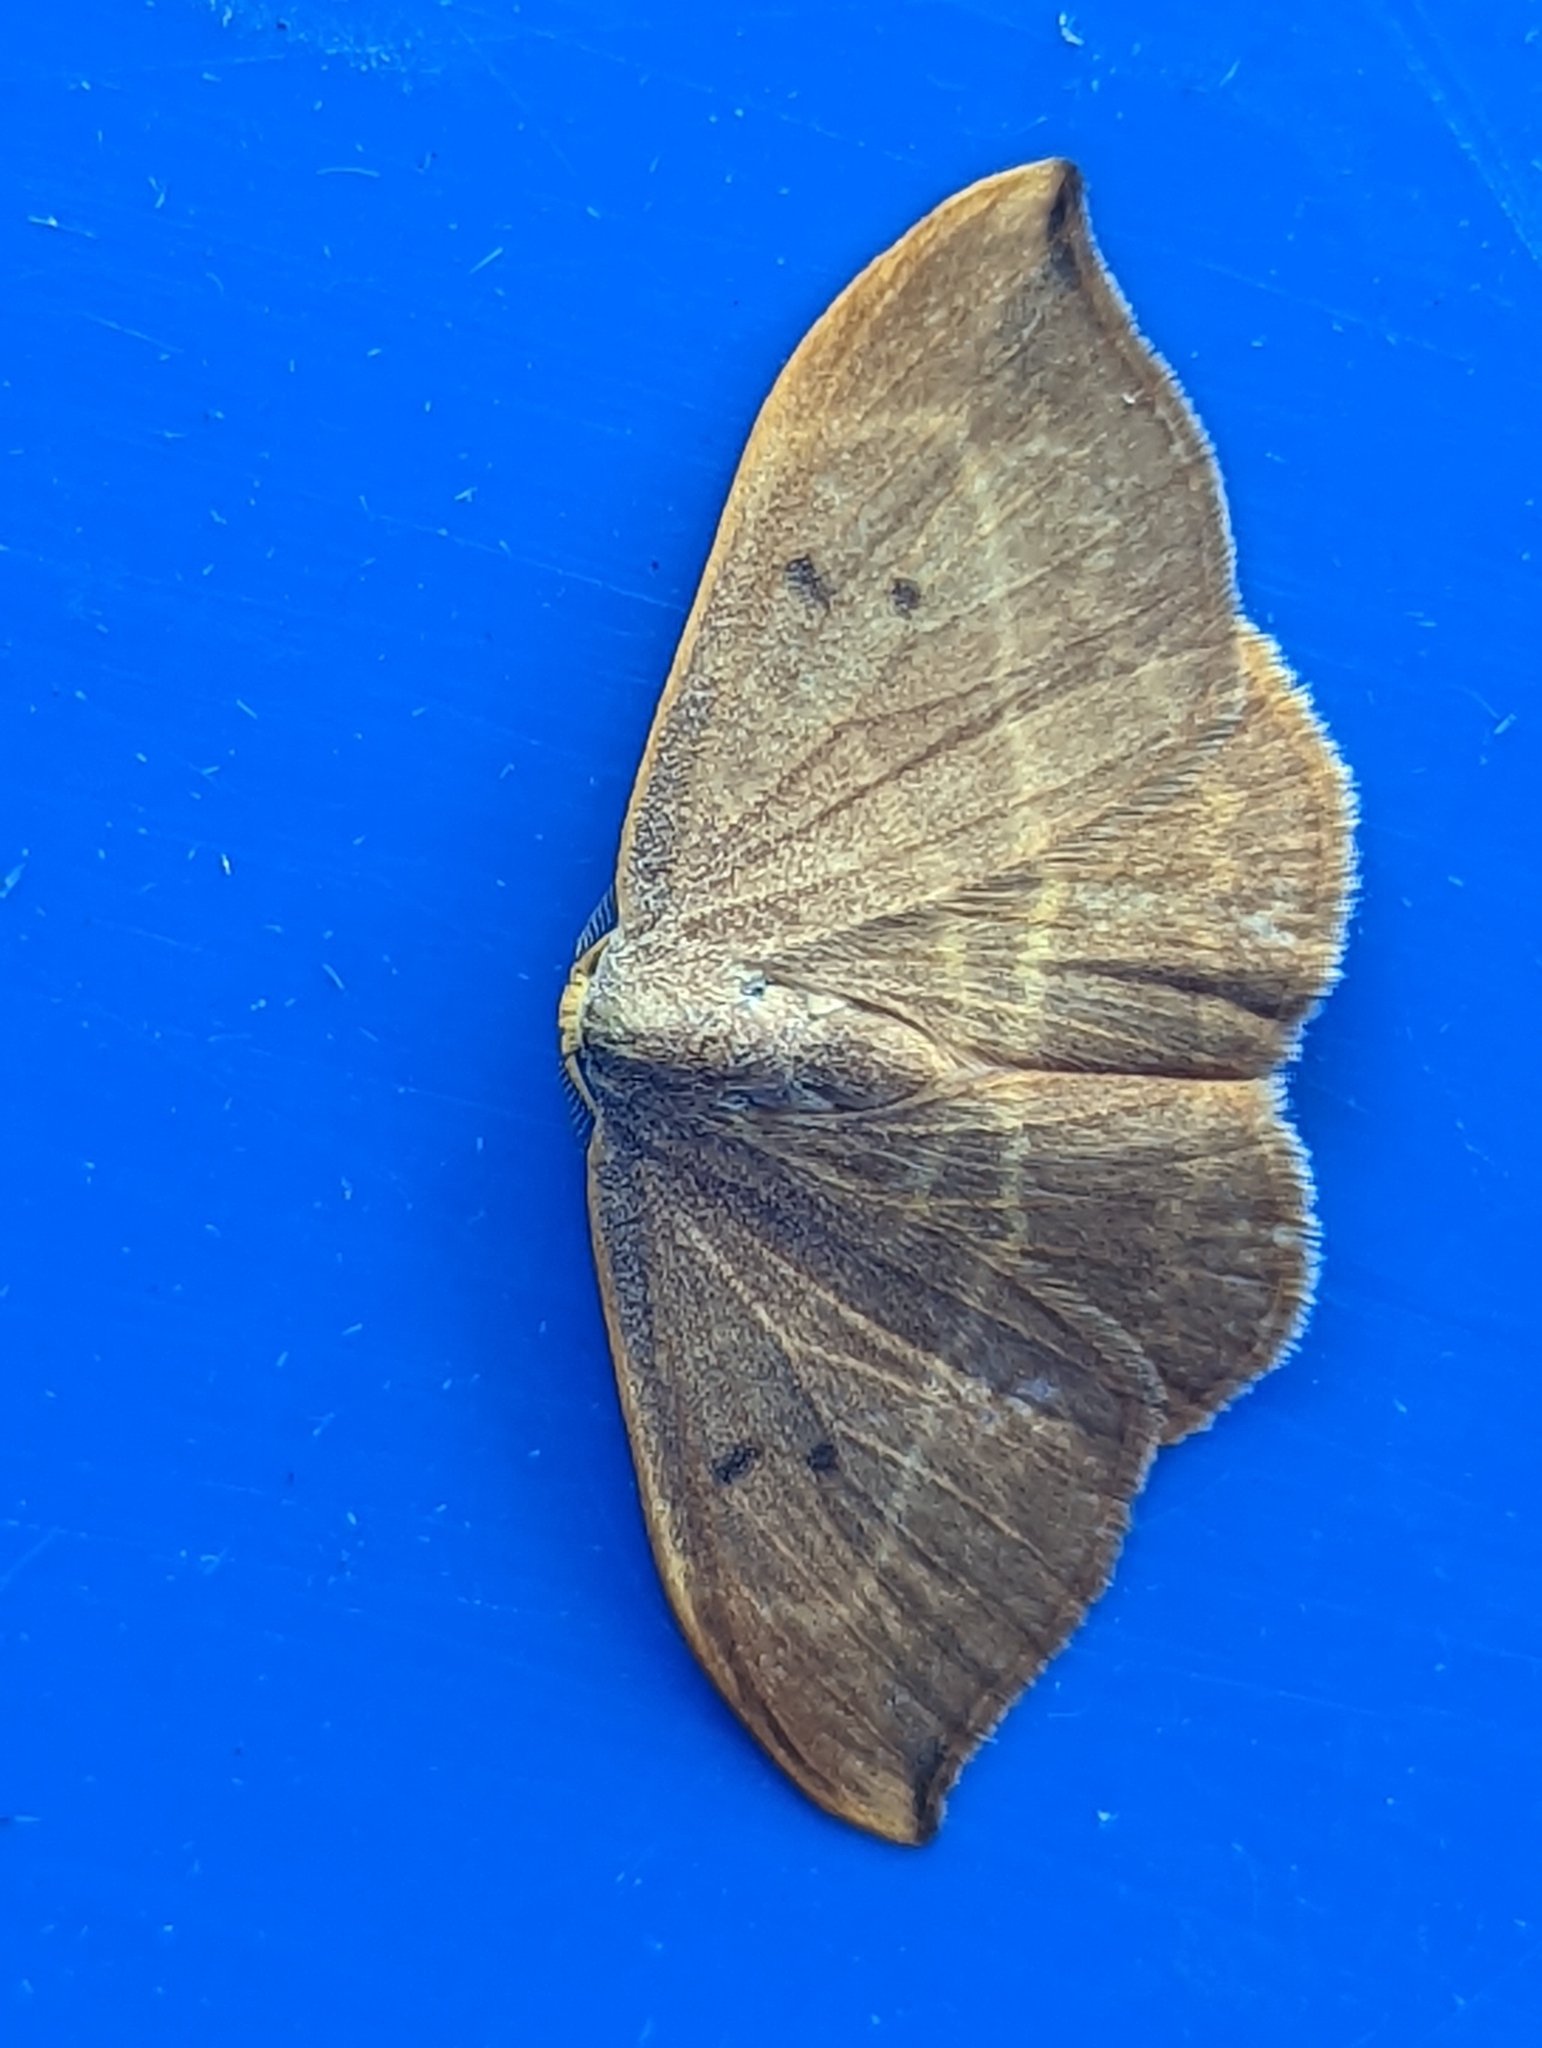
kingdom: Animalia
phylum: Arthropoda
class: Insecta
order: Lepidoptera
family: Drepanidae
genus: Watsonalla
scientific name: Watsonalla binaria
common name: Oak hook-tip
